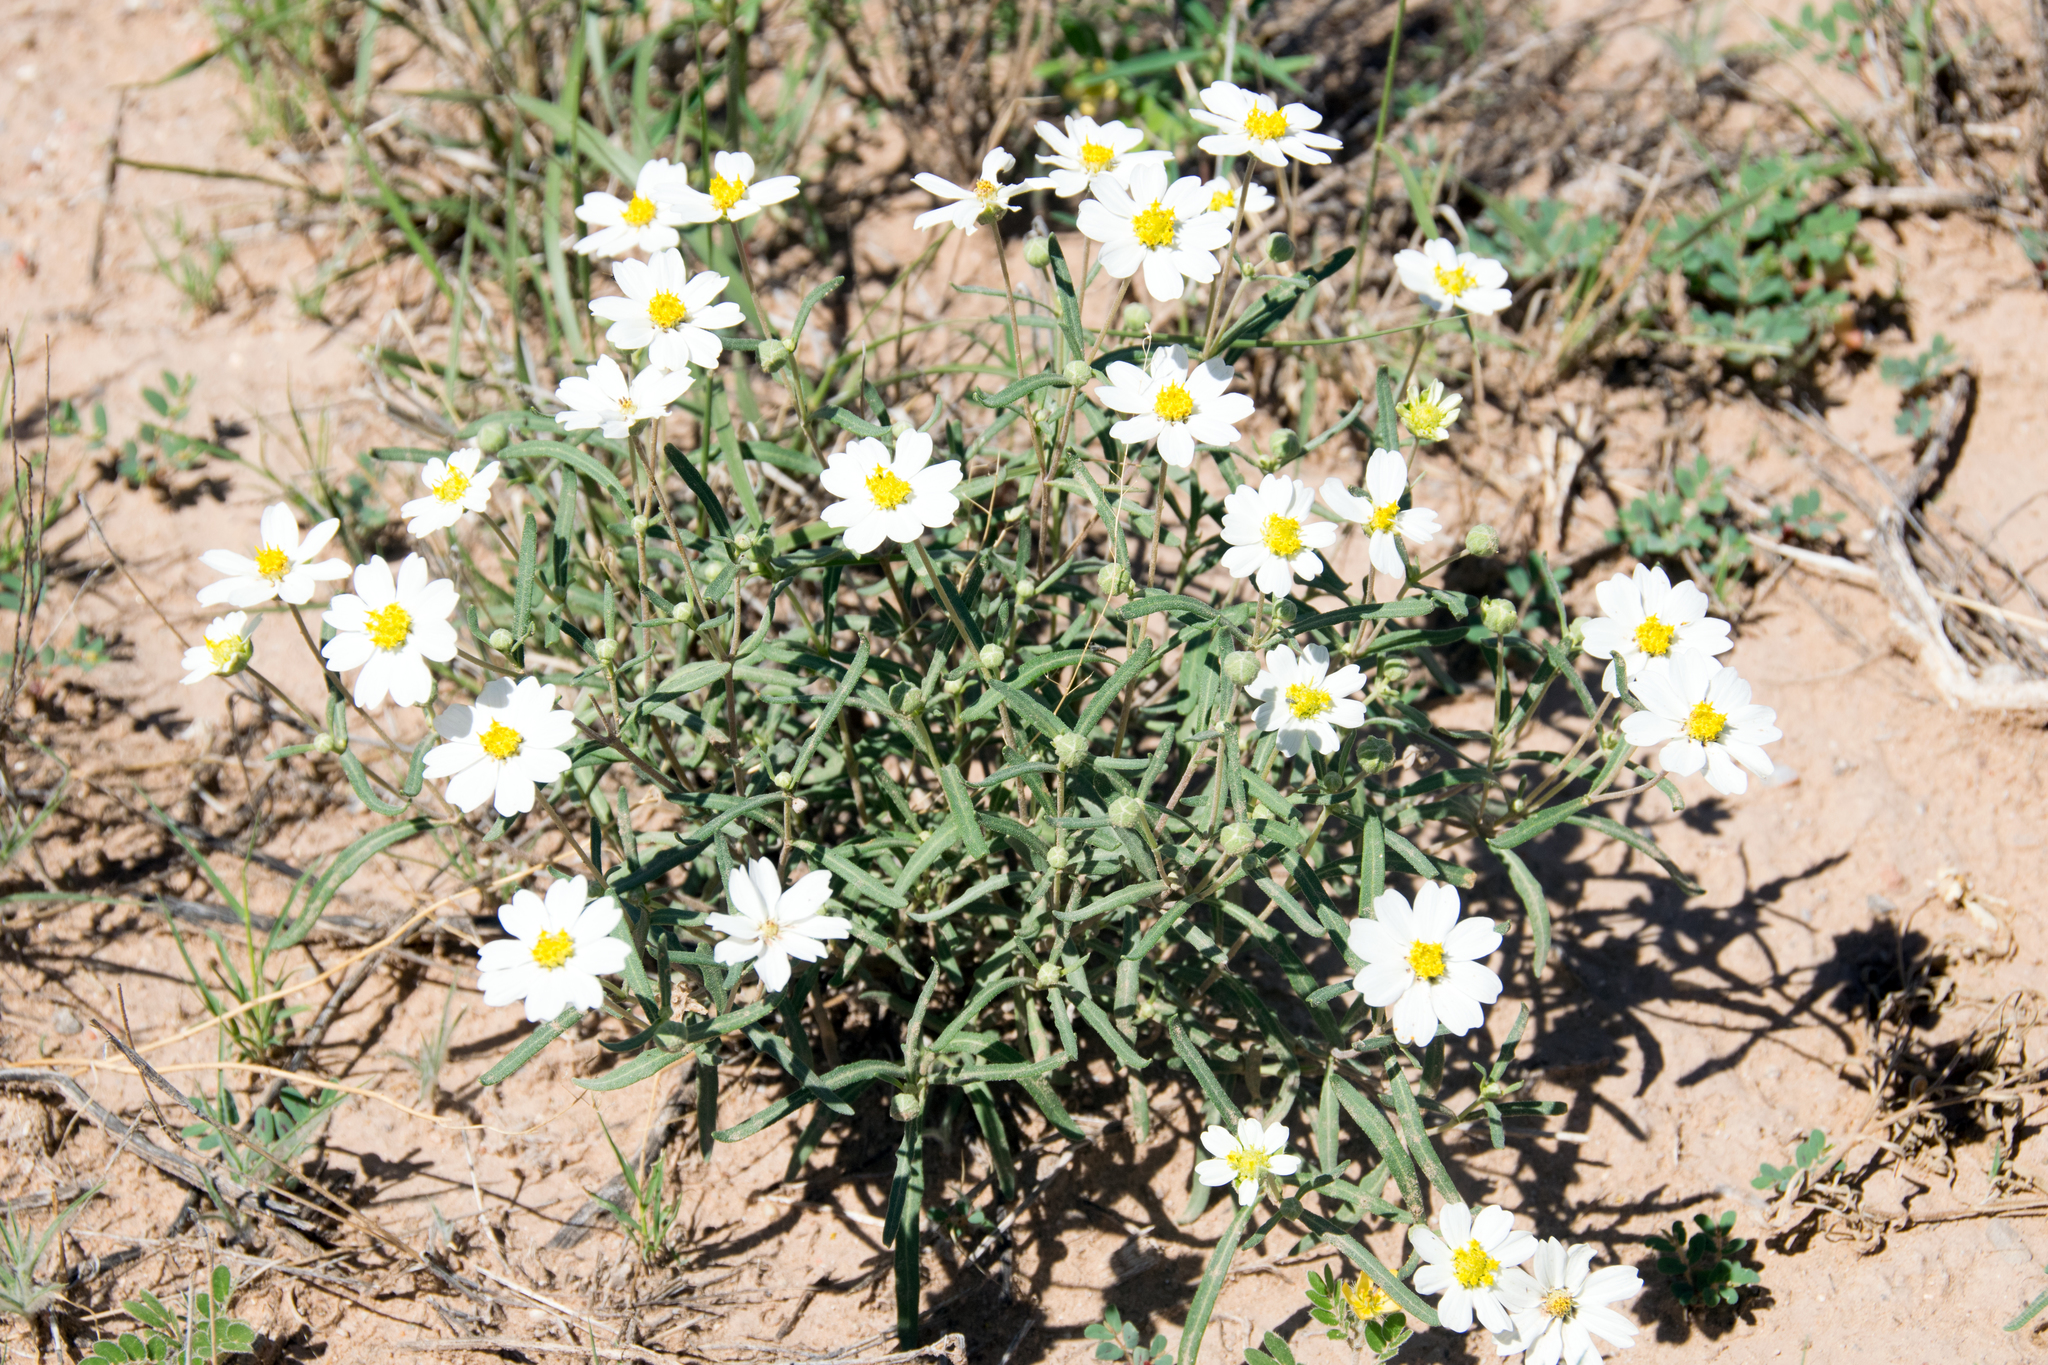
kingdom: Plantae
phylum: Tracheophyta
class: Magnoliopsida
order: Asterales
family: Asteraceae
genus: Melampodium
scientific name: Melampodium leucanthum
